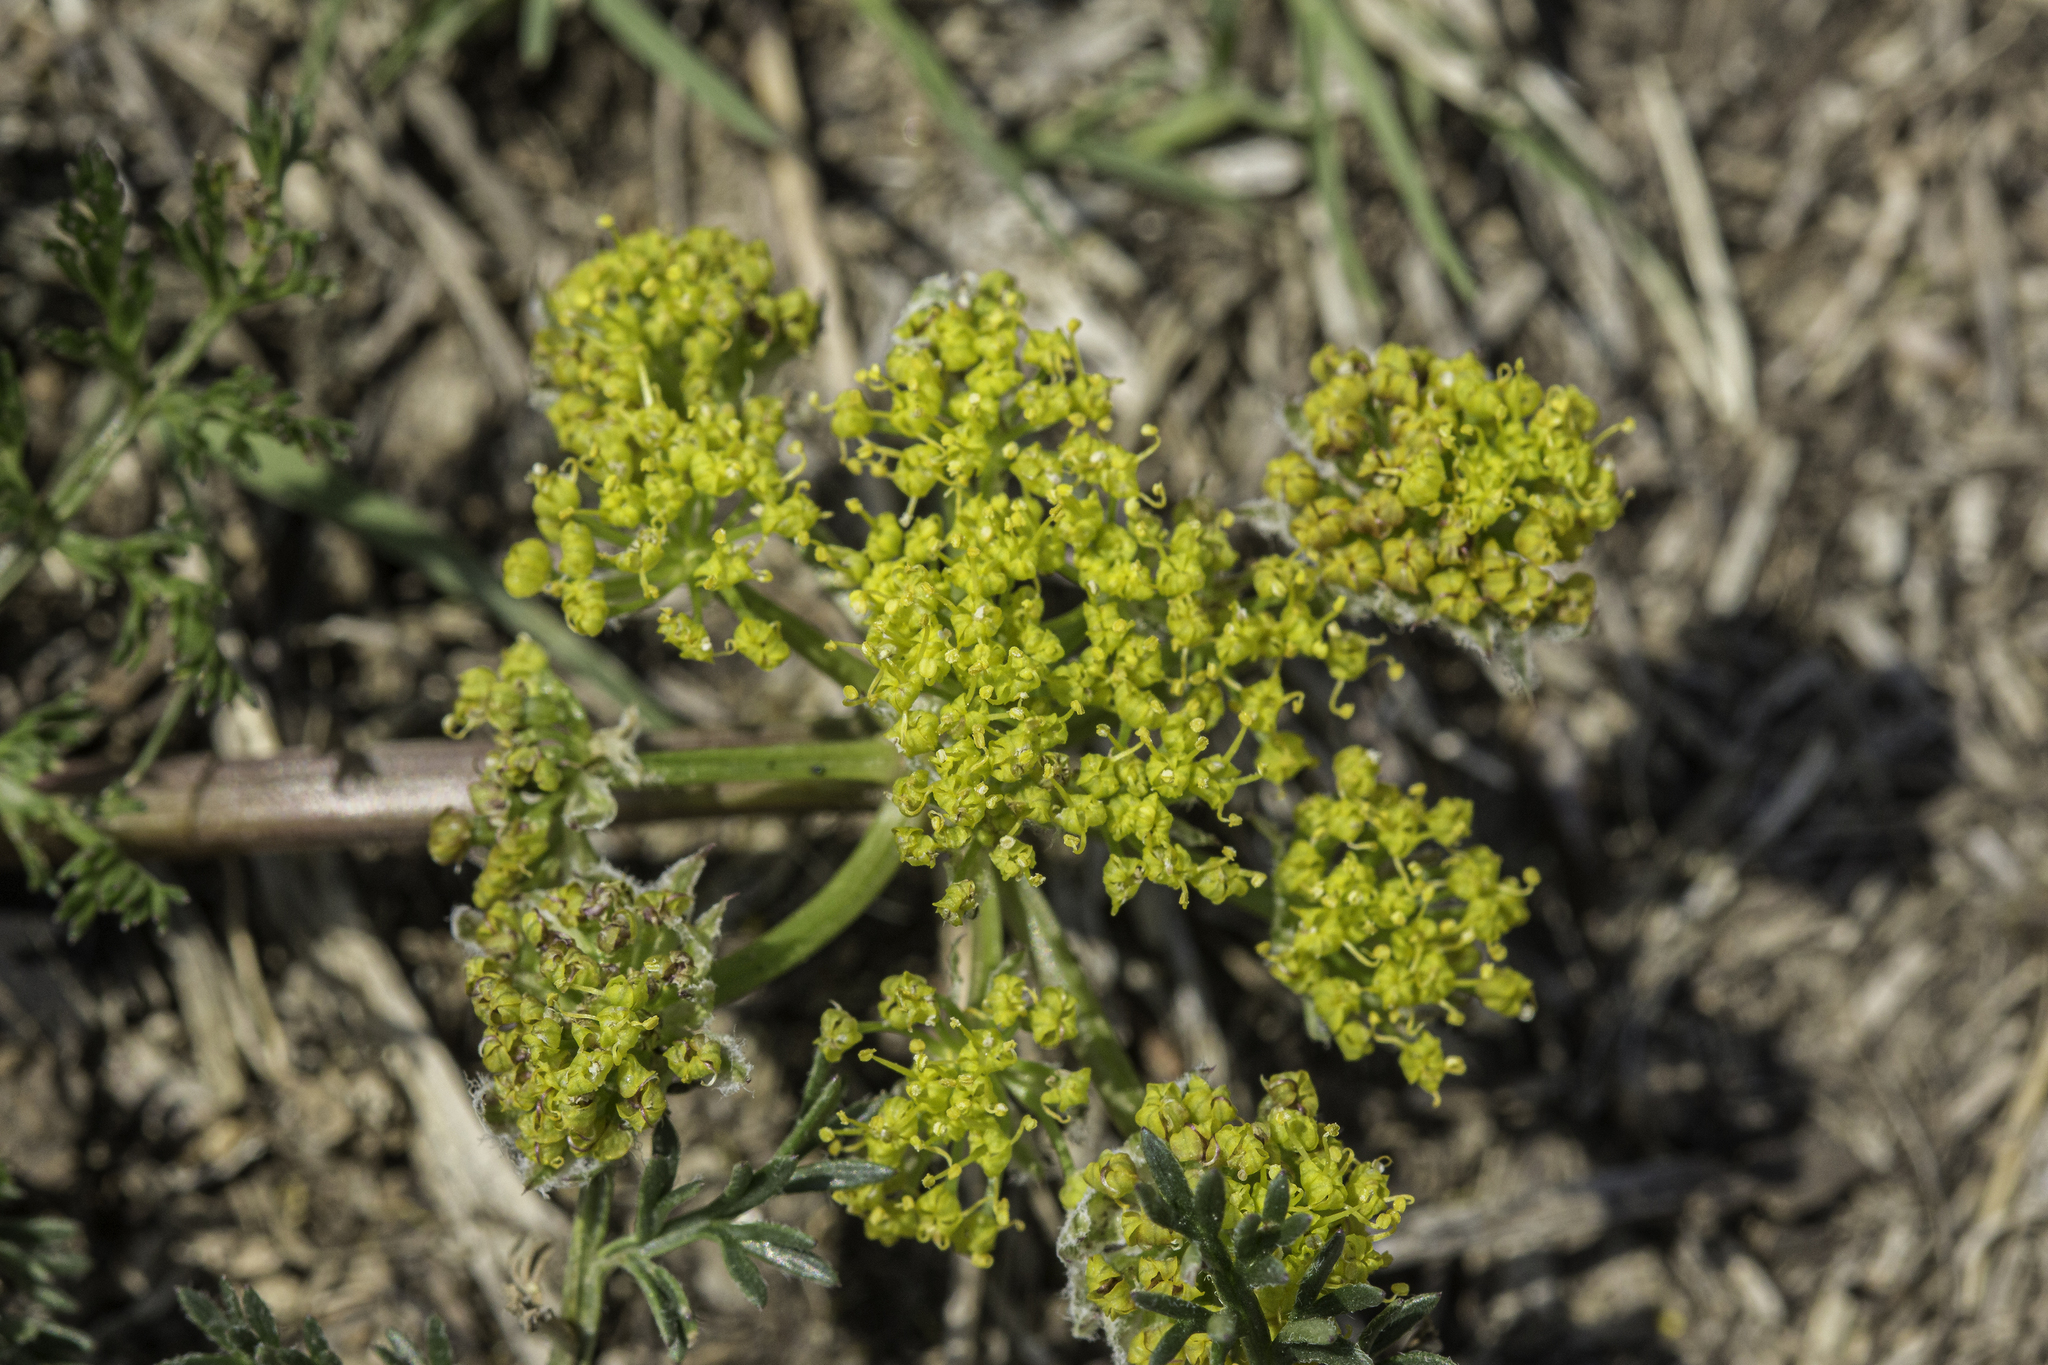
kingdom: Plantae
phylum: Tracheophyta
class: Magnoliopsida
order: Apiales
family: Apiaceae
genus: Lomatium
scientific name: Lomatium foeniculaceum
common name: Desert-parsley
